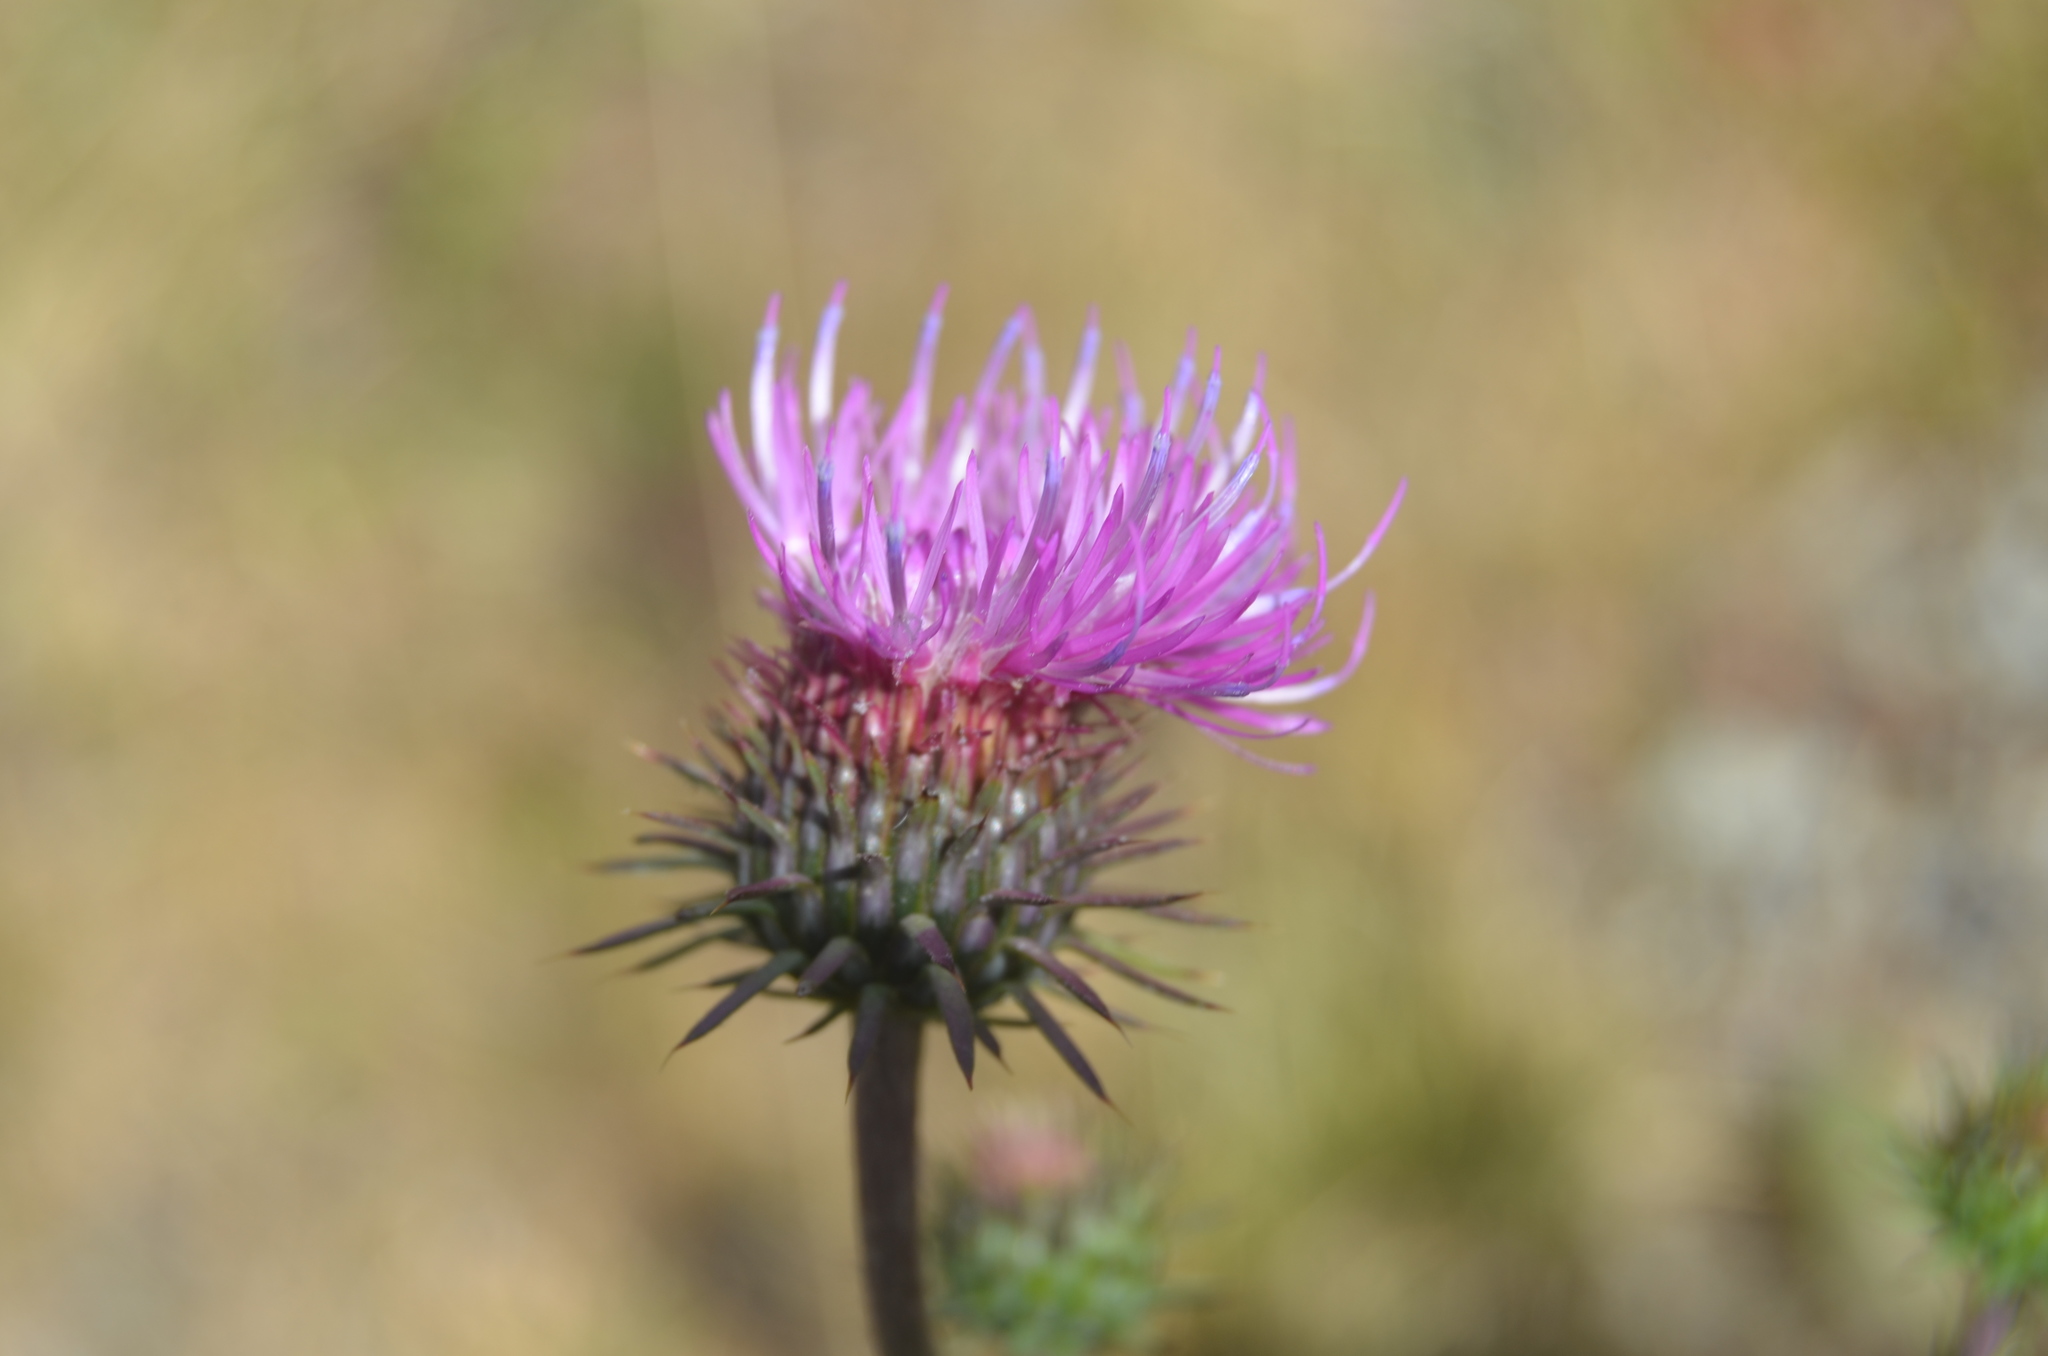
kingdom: Plantae
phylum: Tracheophyta
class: Magnoliopsida
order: Asterales
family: Asteraceae
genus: Carduus
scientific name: Carduus defloratus
